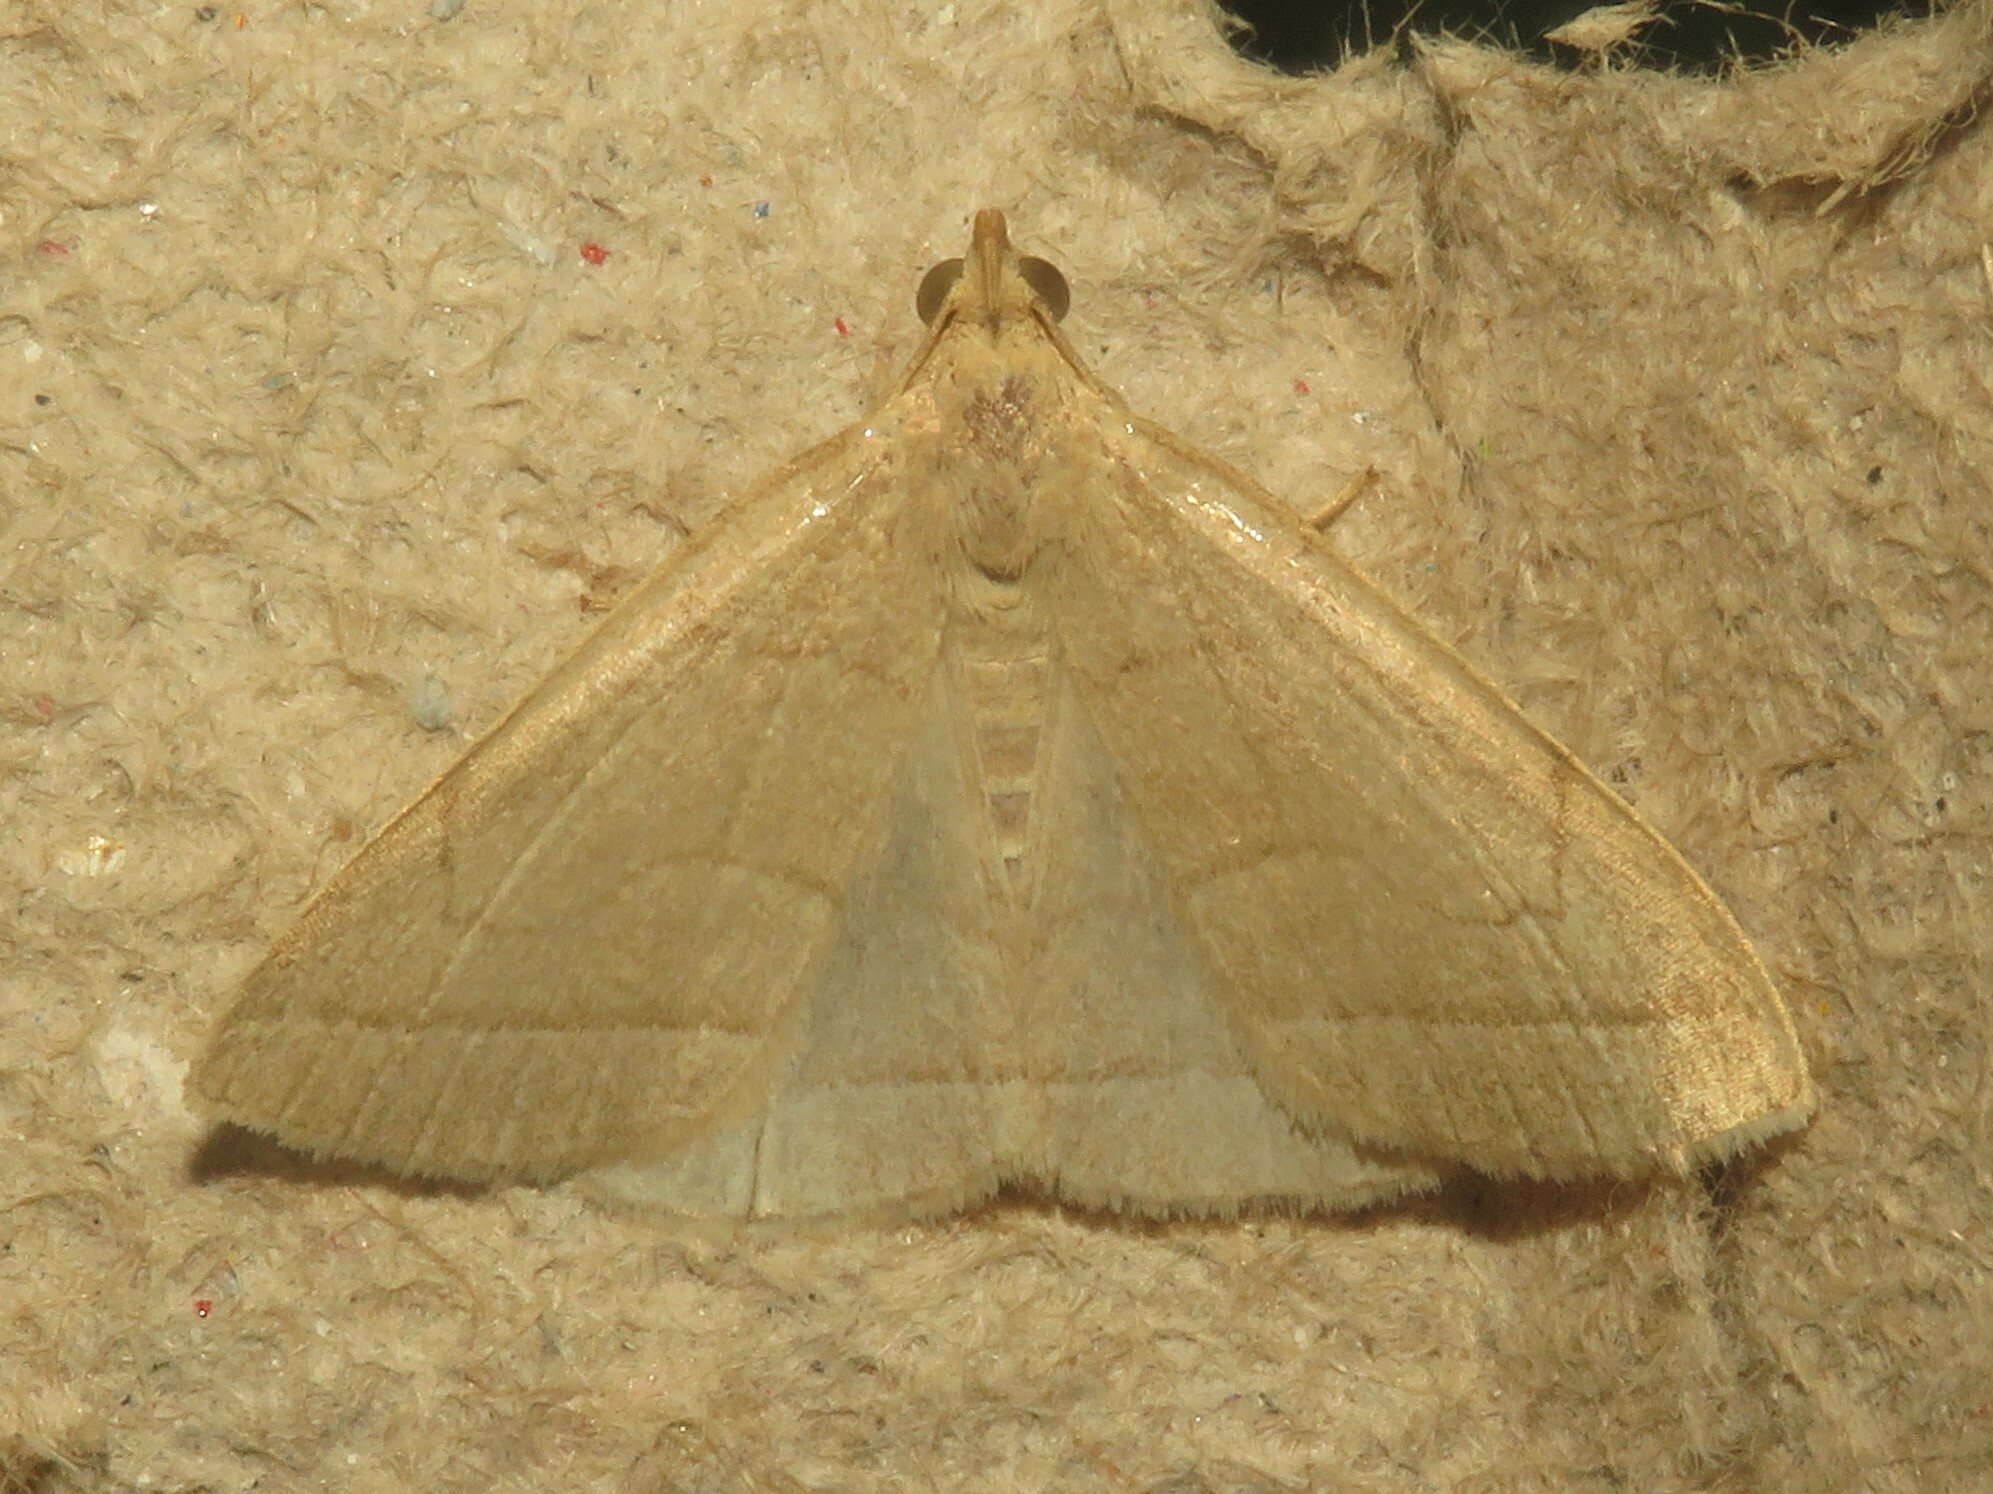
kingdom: Animalia
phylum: Arthropoda
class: Insecta
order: Lepidoptera
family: Erebidae
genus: Zanclognatha
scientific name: Zanclognatha cruralis
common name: Early fan-foot
